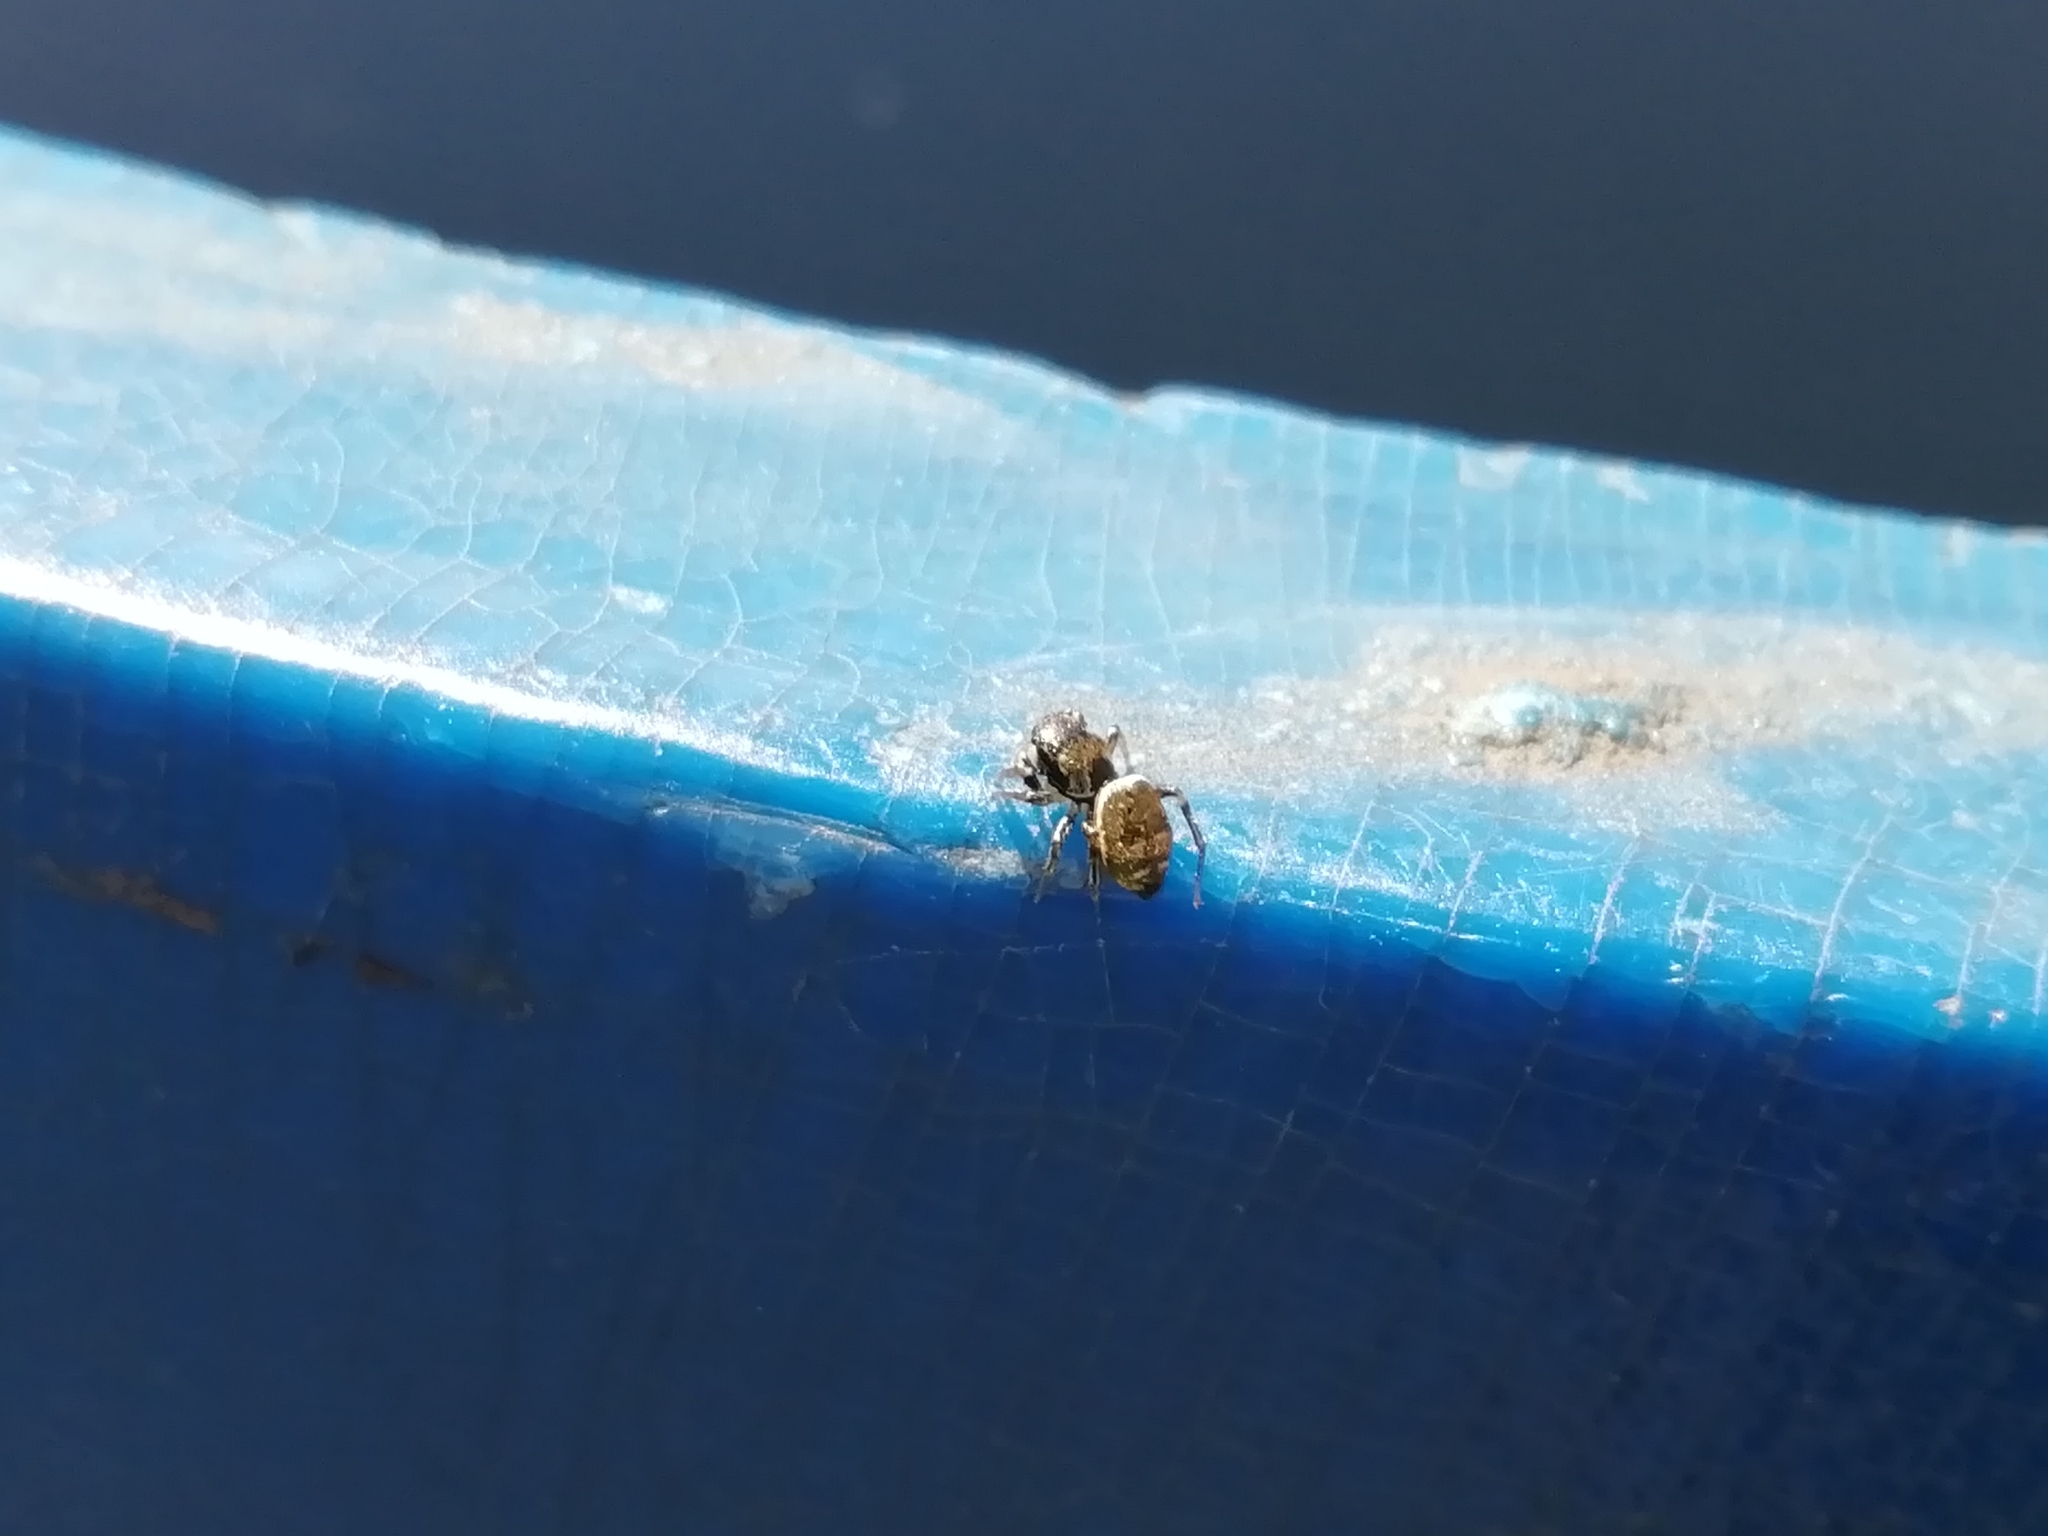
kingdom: Animalia
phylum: Arthropoda
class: Arachnida
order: Araneae
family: Salticidae
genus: Heliophanus
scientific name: Heliophanus auratus
